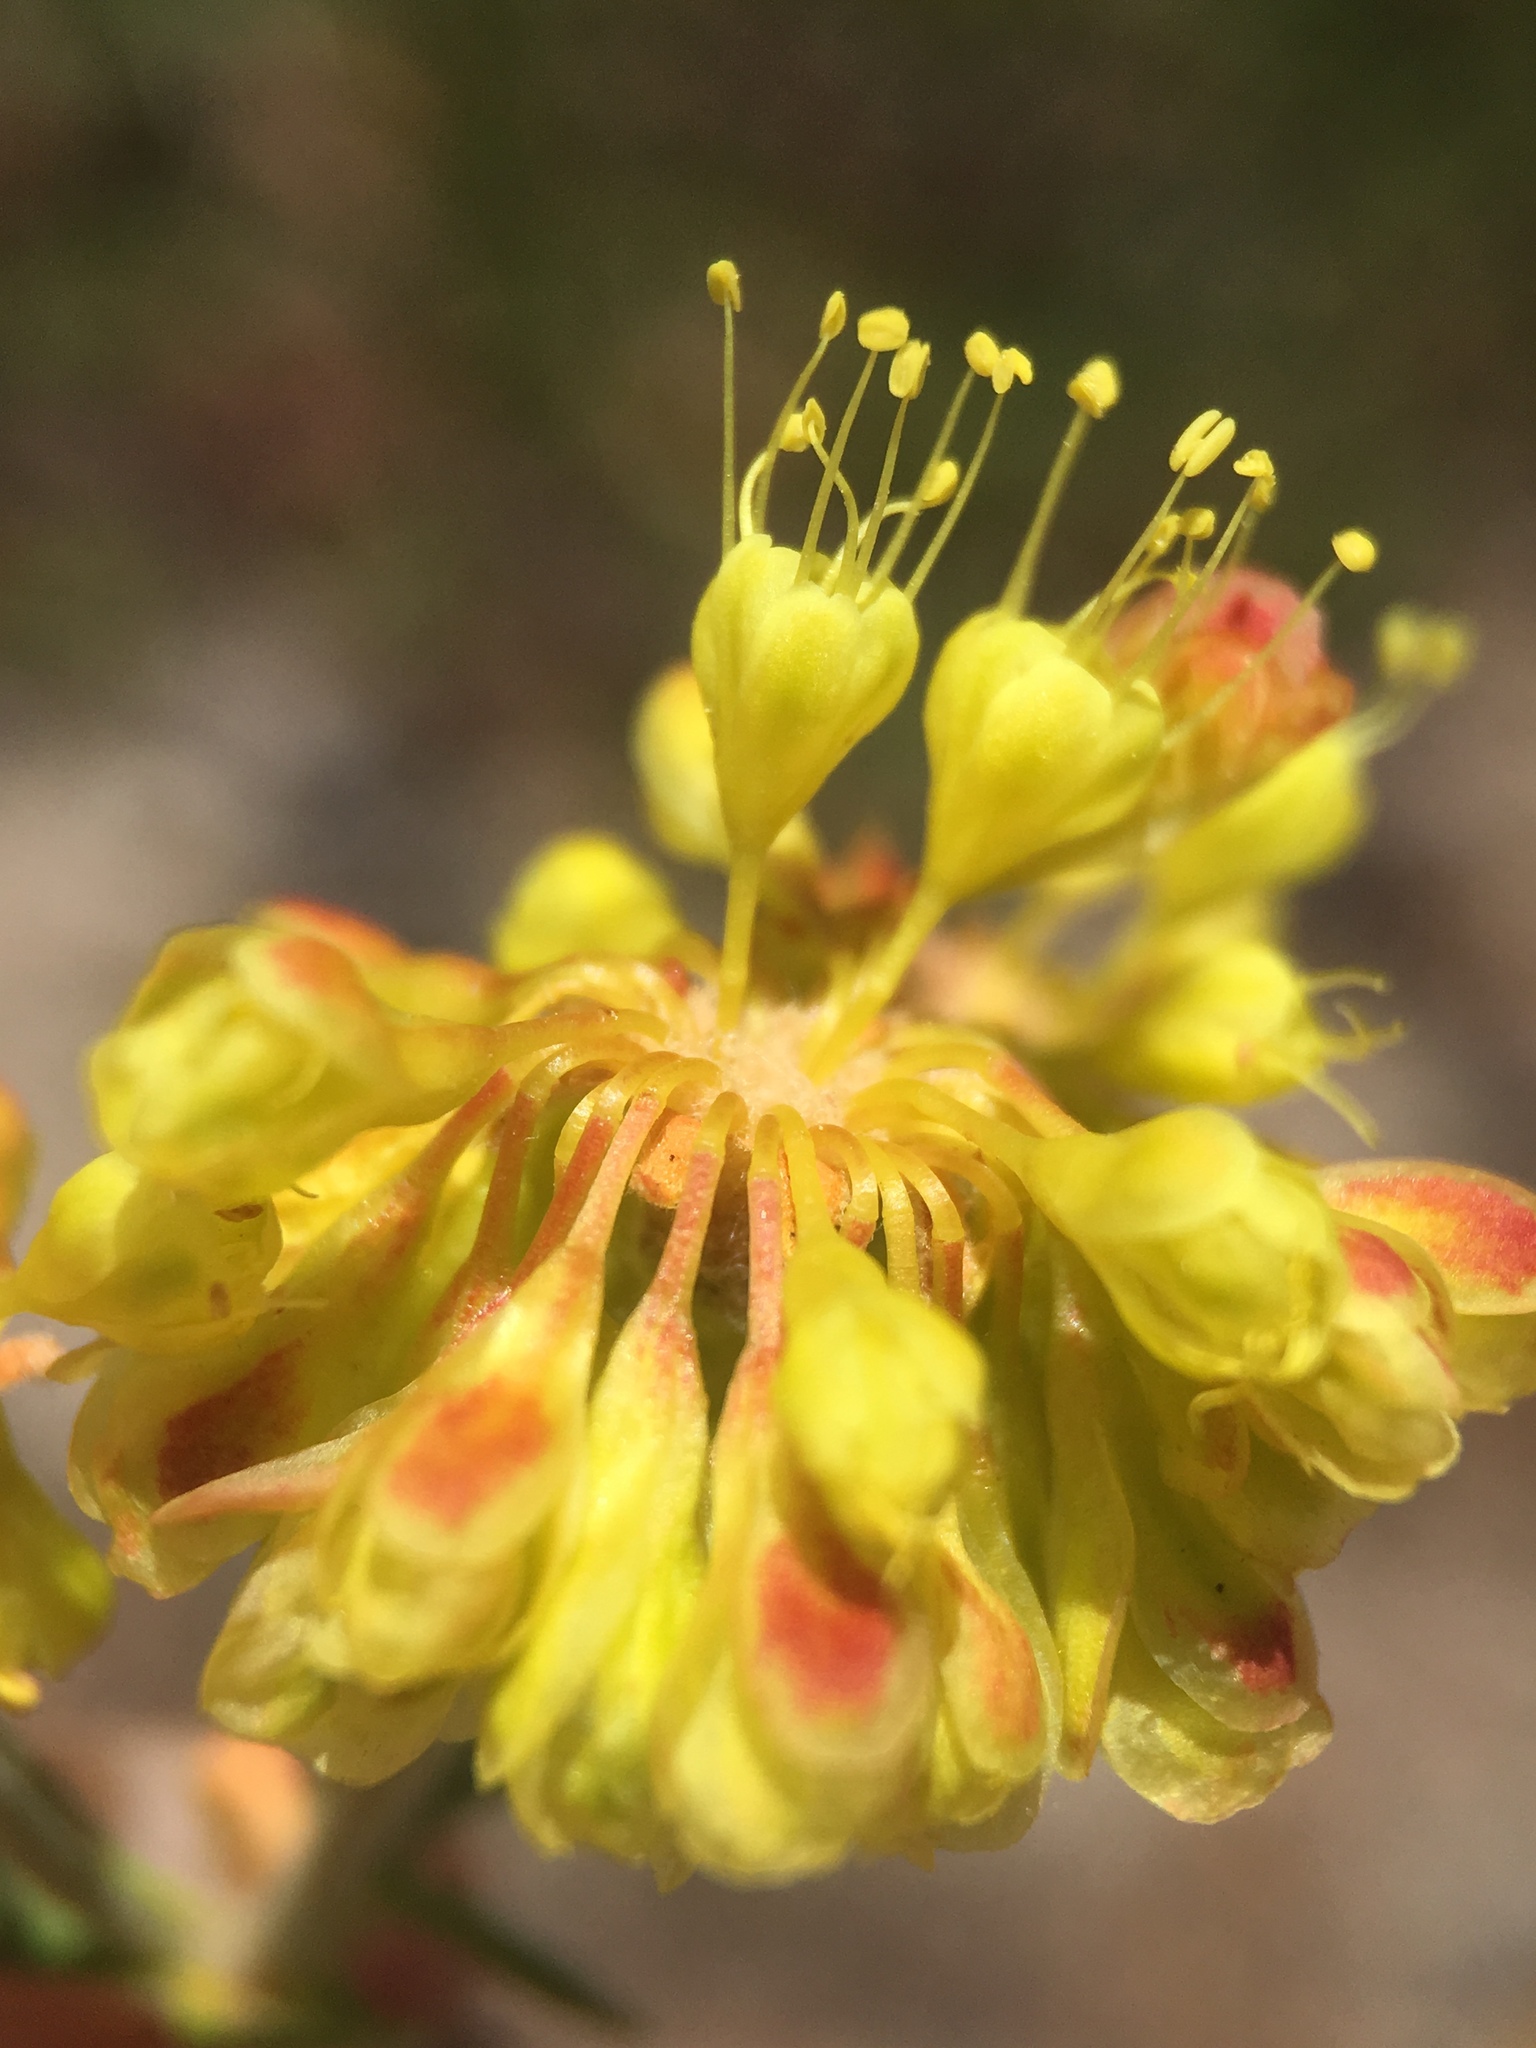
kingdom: Plantae
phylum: Tracheophyta
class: Magnoliopsida
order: Caryophyllales
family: Polygonaceae
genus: Eriogonum
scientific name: Eriogonum umbellatum
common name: Sulfur-buckwheat
